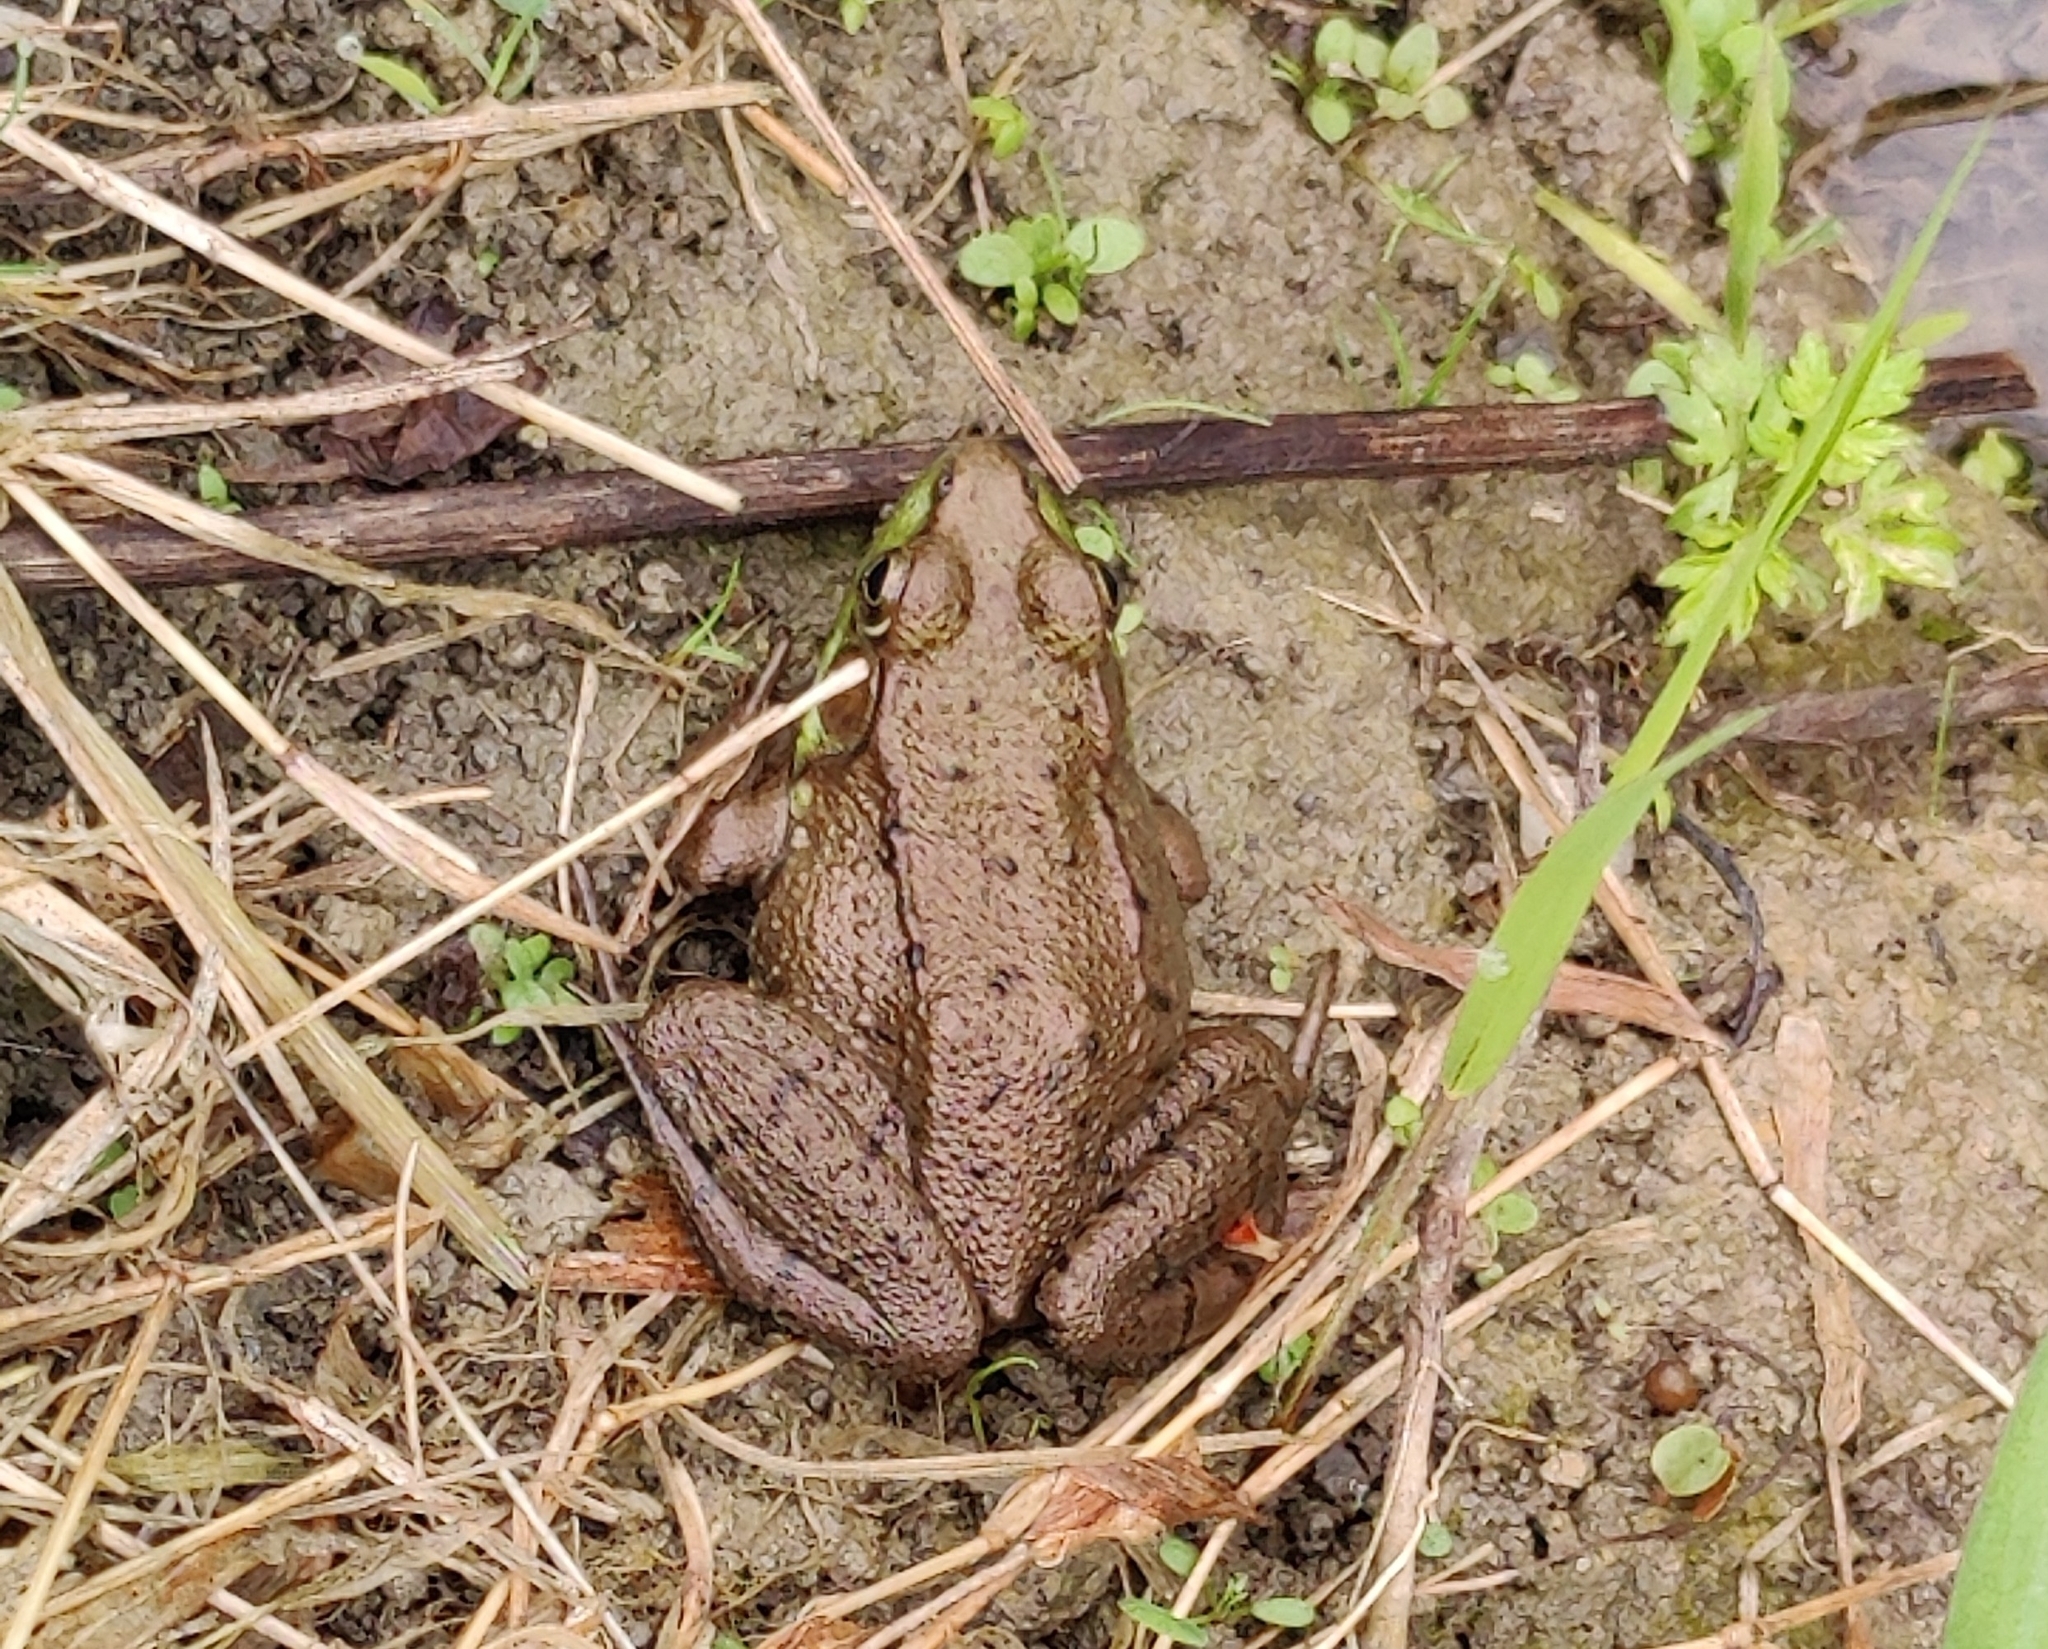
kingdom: Animalia
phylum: Chordata
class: Amphibia
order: Anura
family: Ranidae
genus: Lithobates
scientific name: Lithobates clamitans
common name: Green frog
